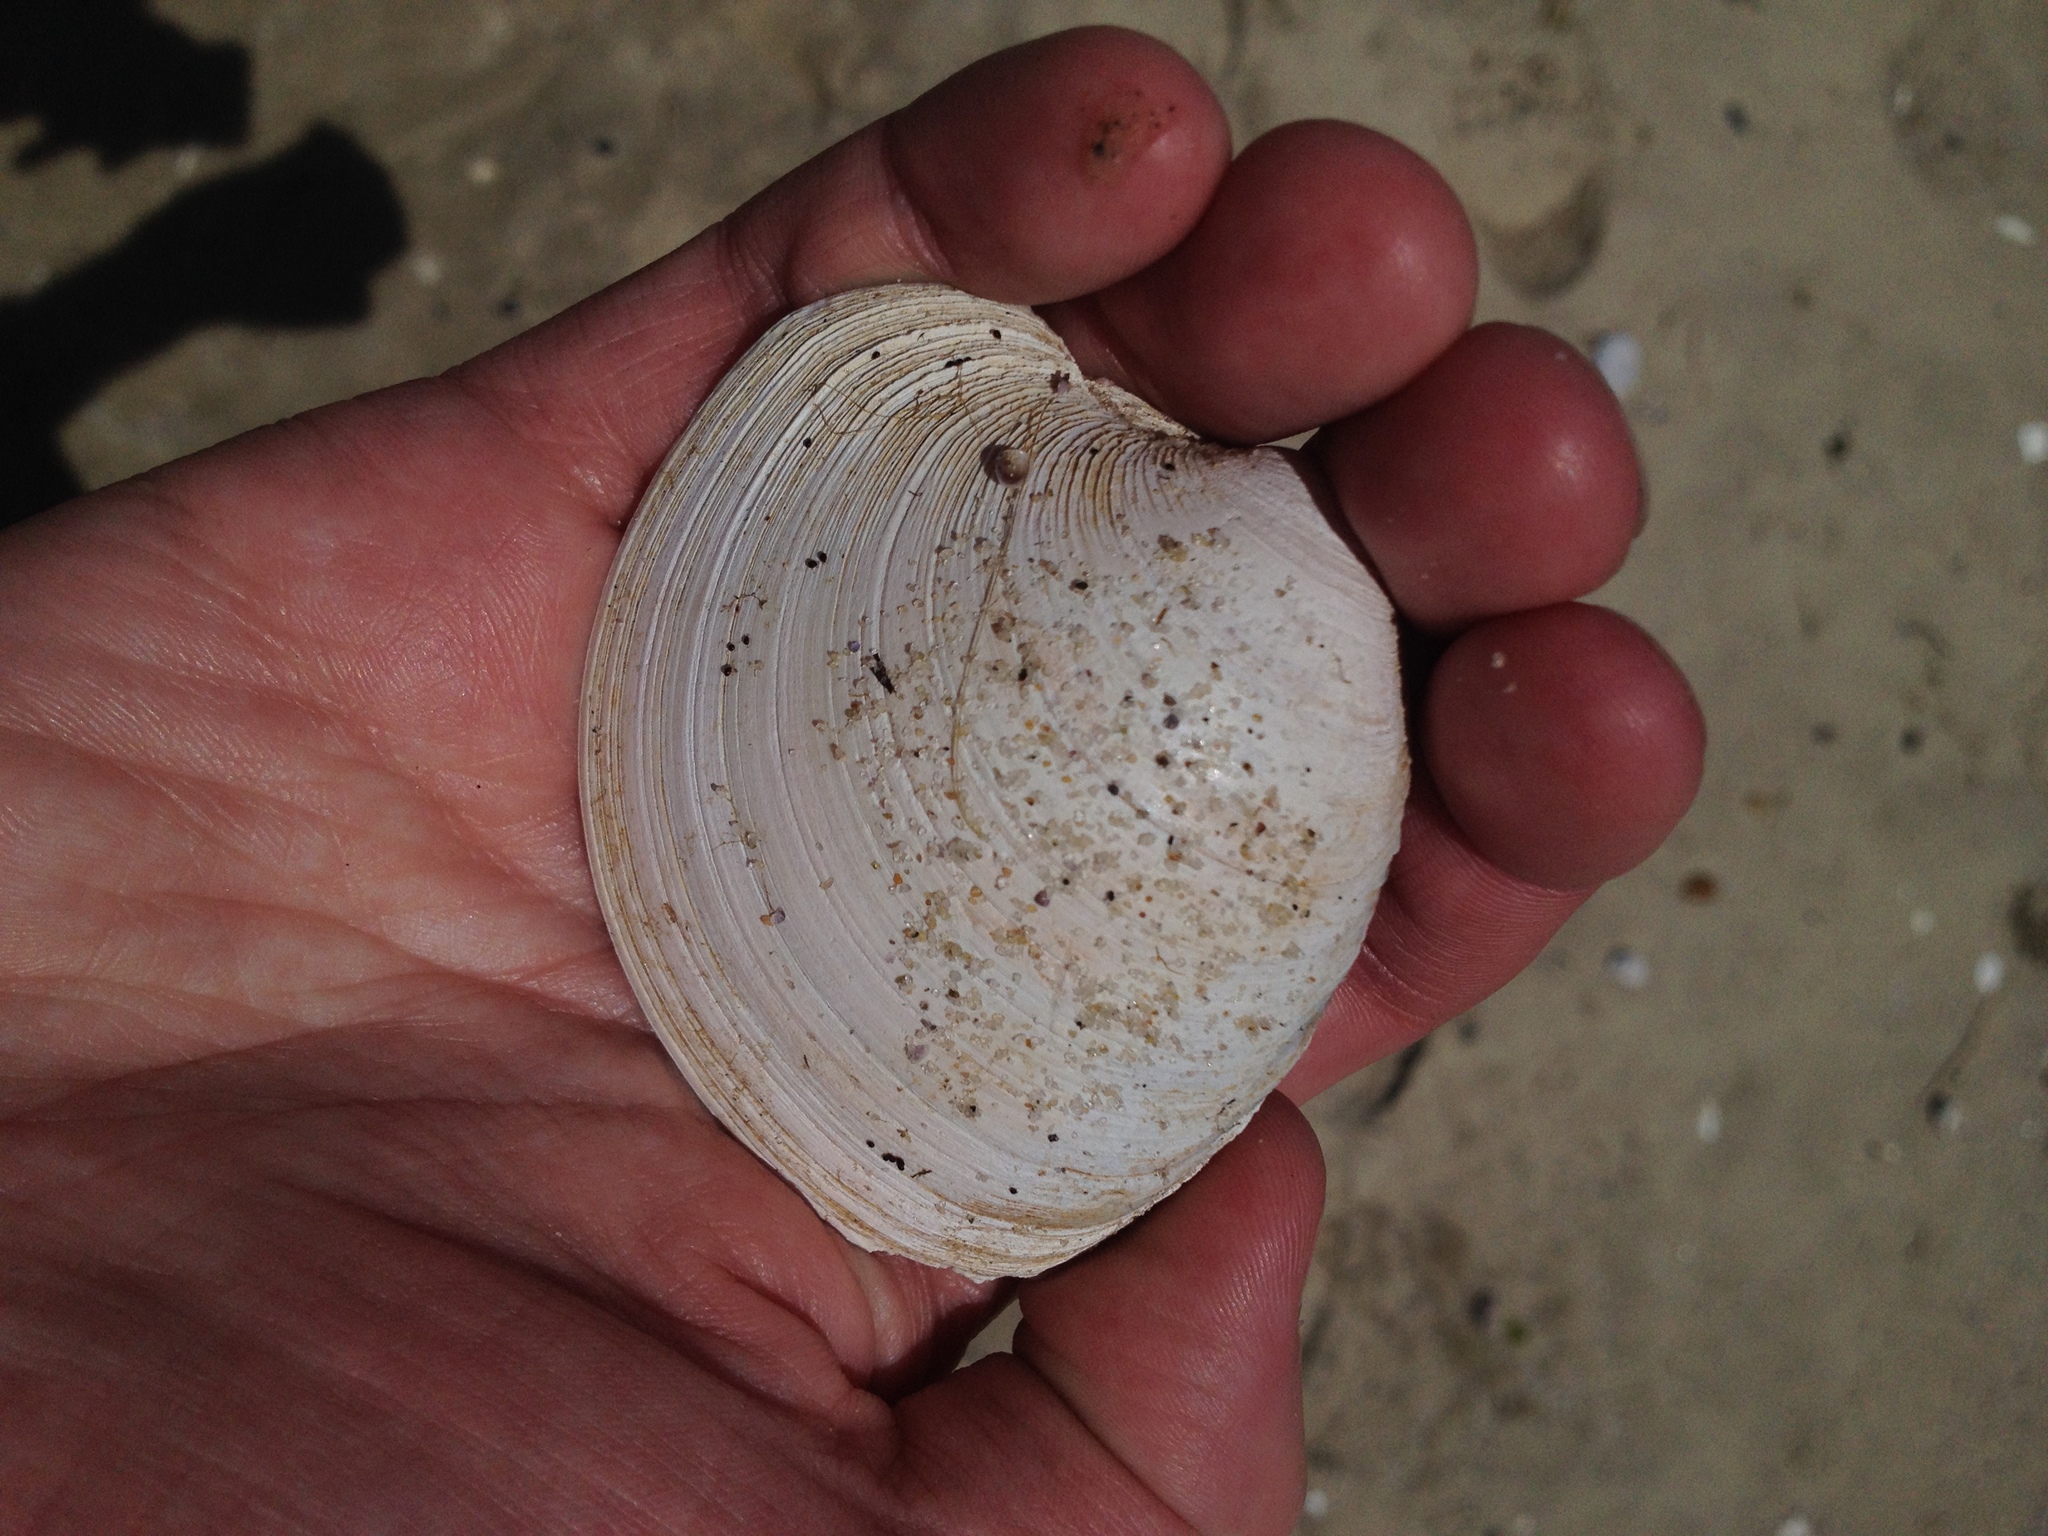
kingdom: Animalia
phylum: Mollusca
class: Bivalvia
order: Venerida
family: Veneridae
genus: Mercenaria
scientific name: Mercenaria mercenaria
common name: American hard-shelled clam
